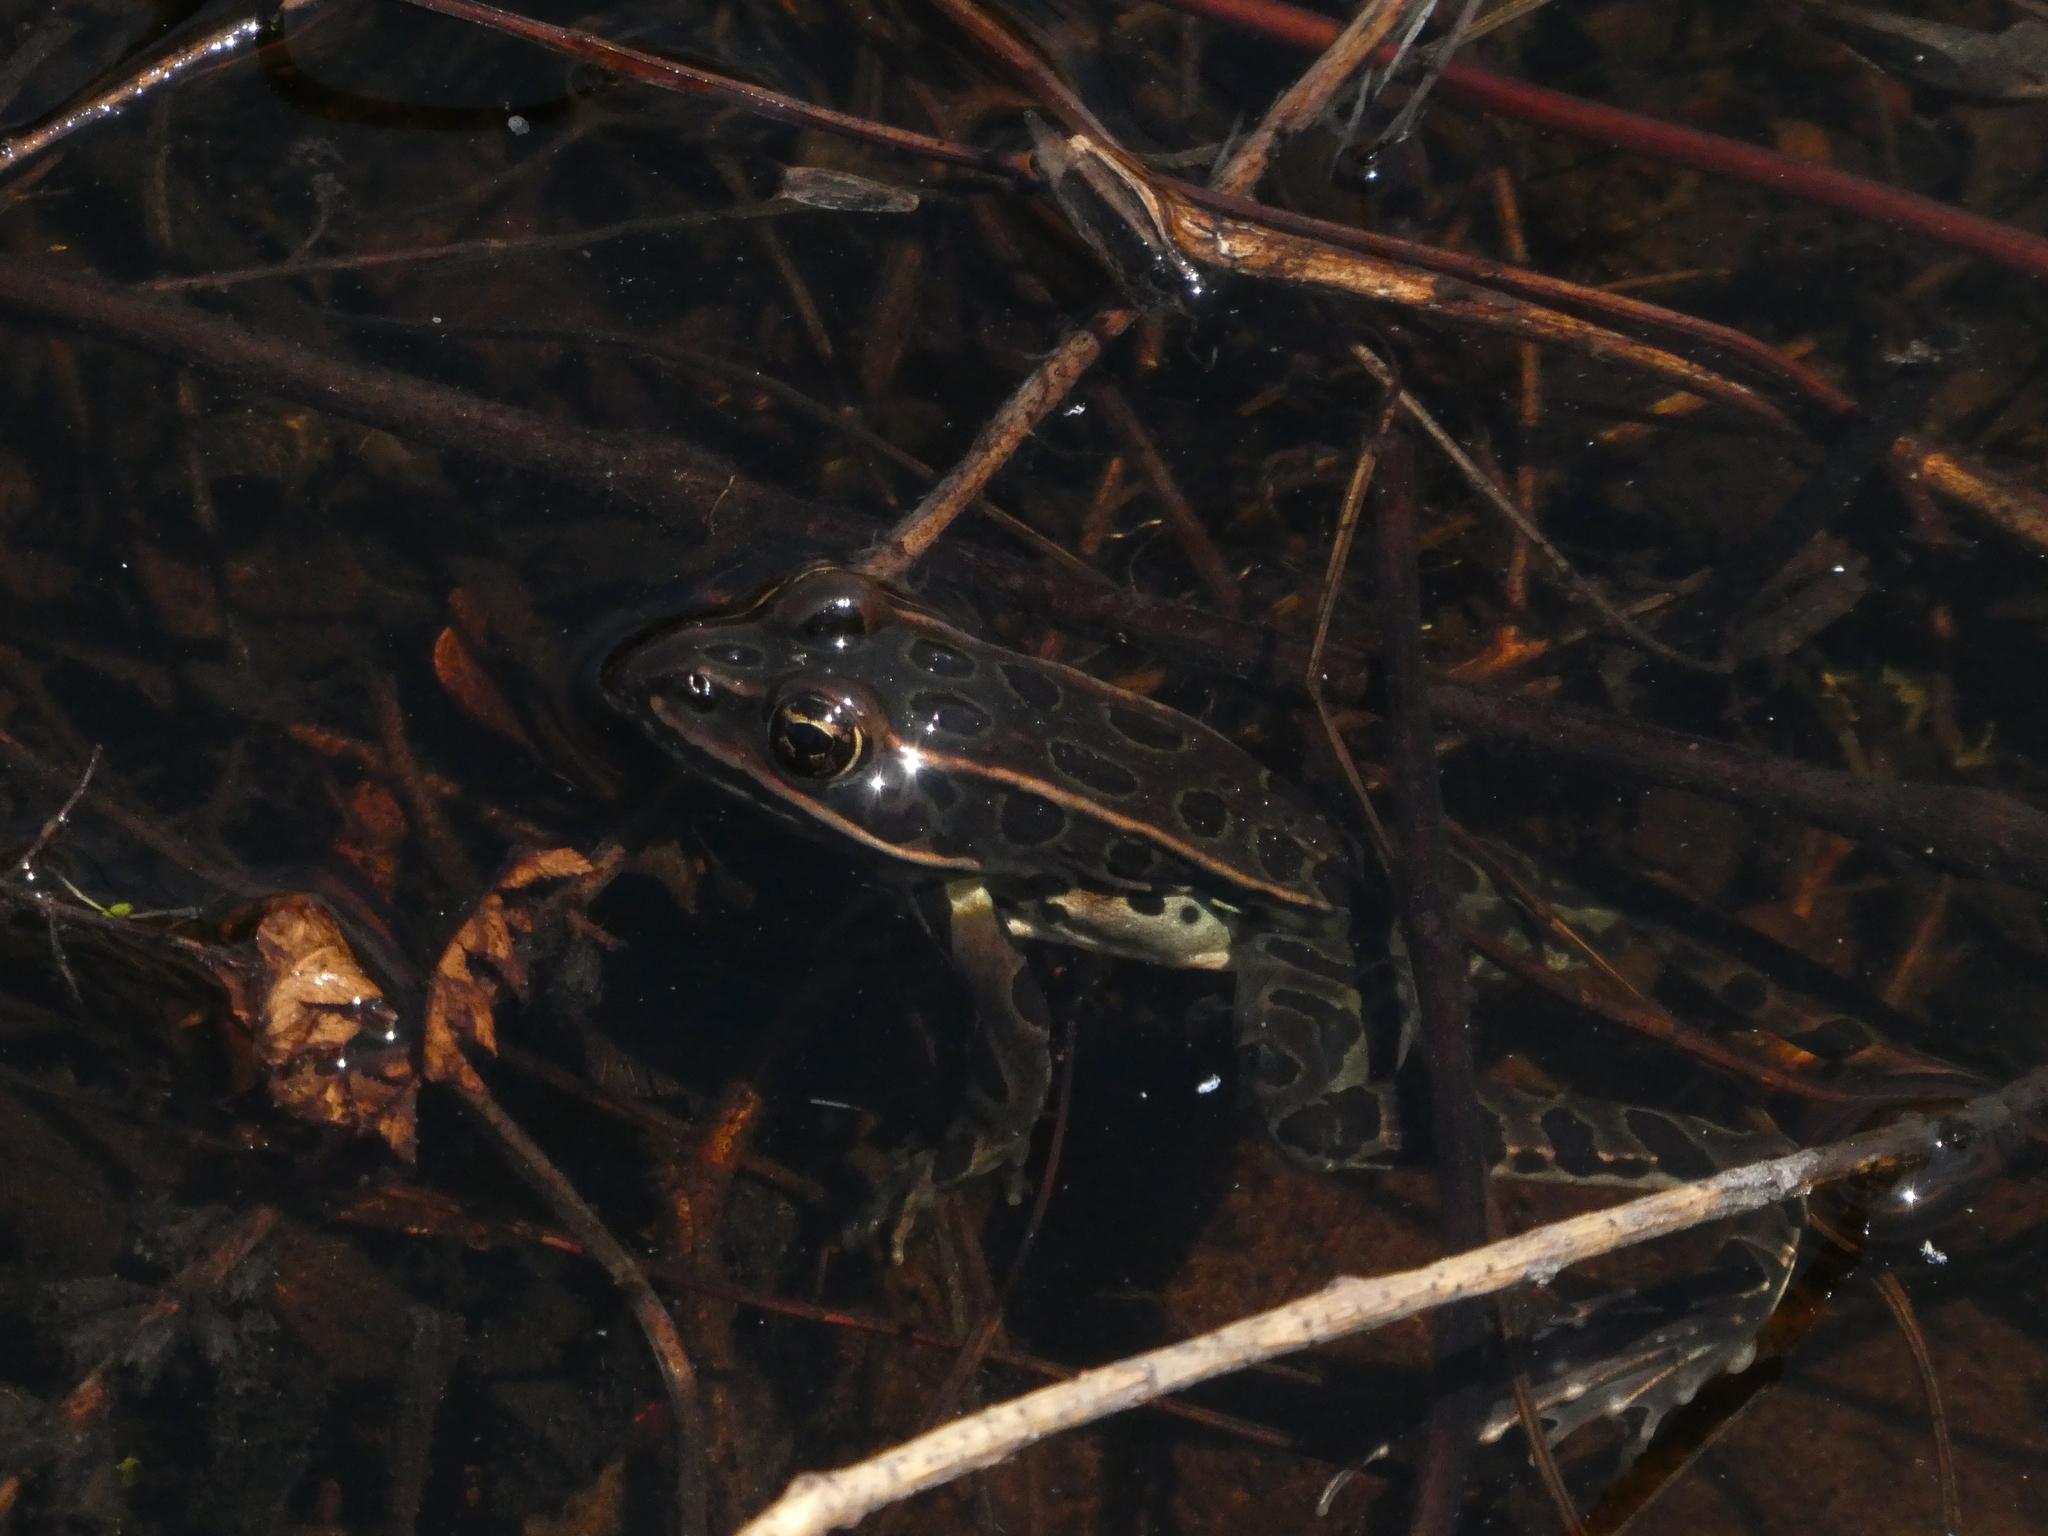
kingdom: Animalia
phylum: Chordata
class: Amphibia
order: Anura
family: Ranidae
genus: Lithobates
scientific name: Lithobates pipiens
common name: Northern leopard frog
